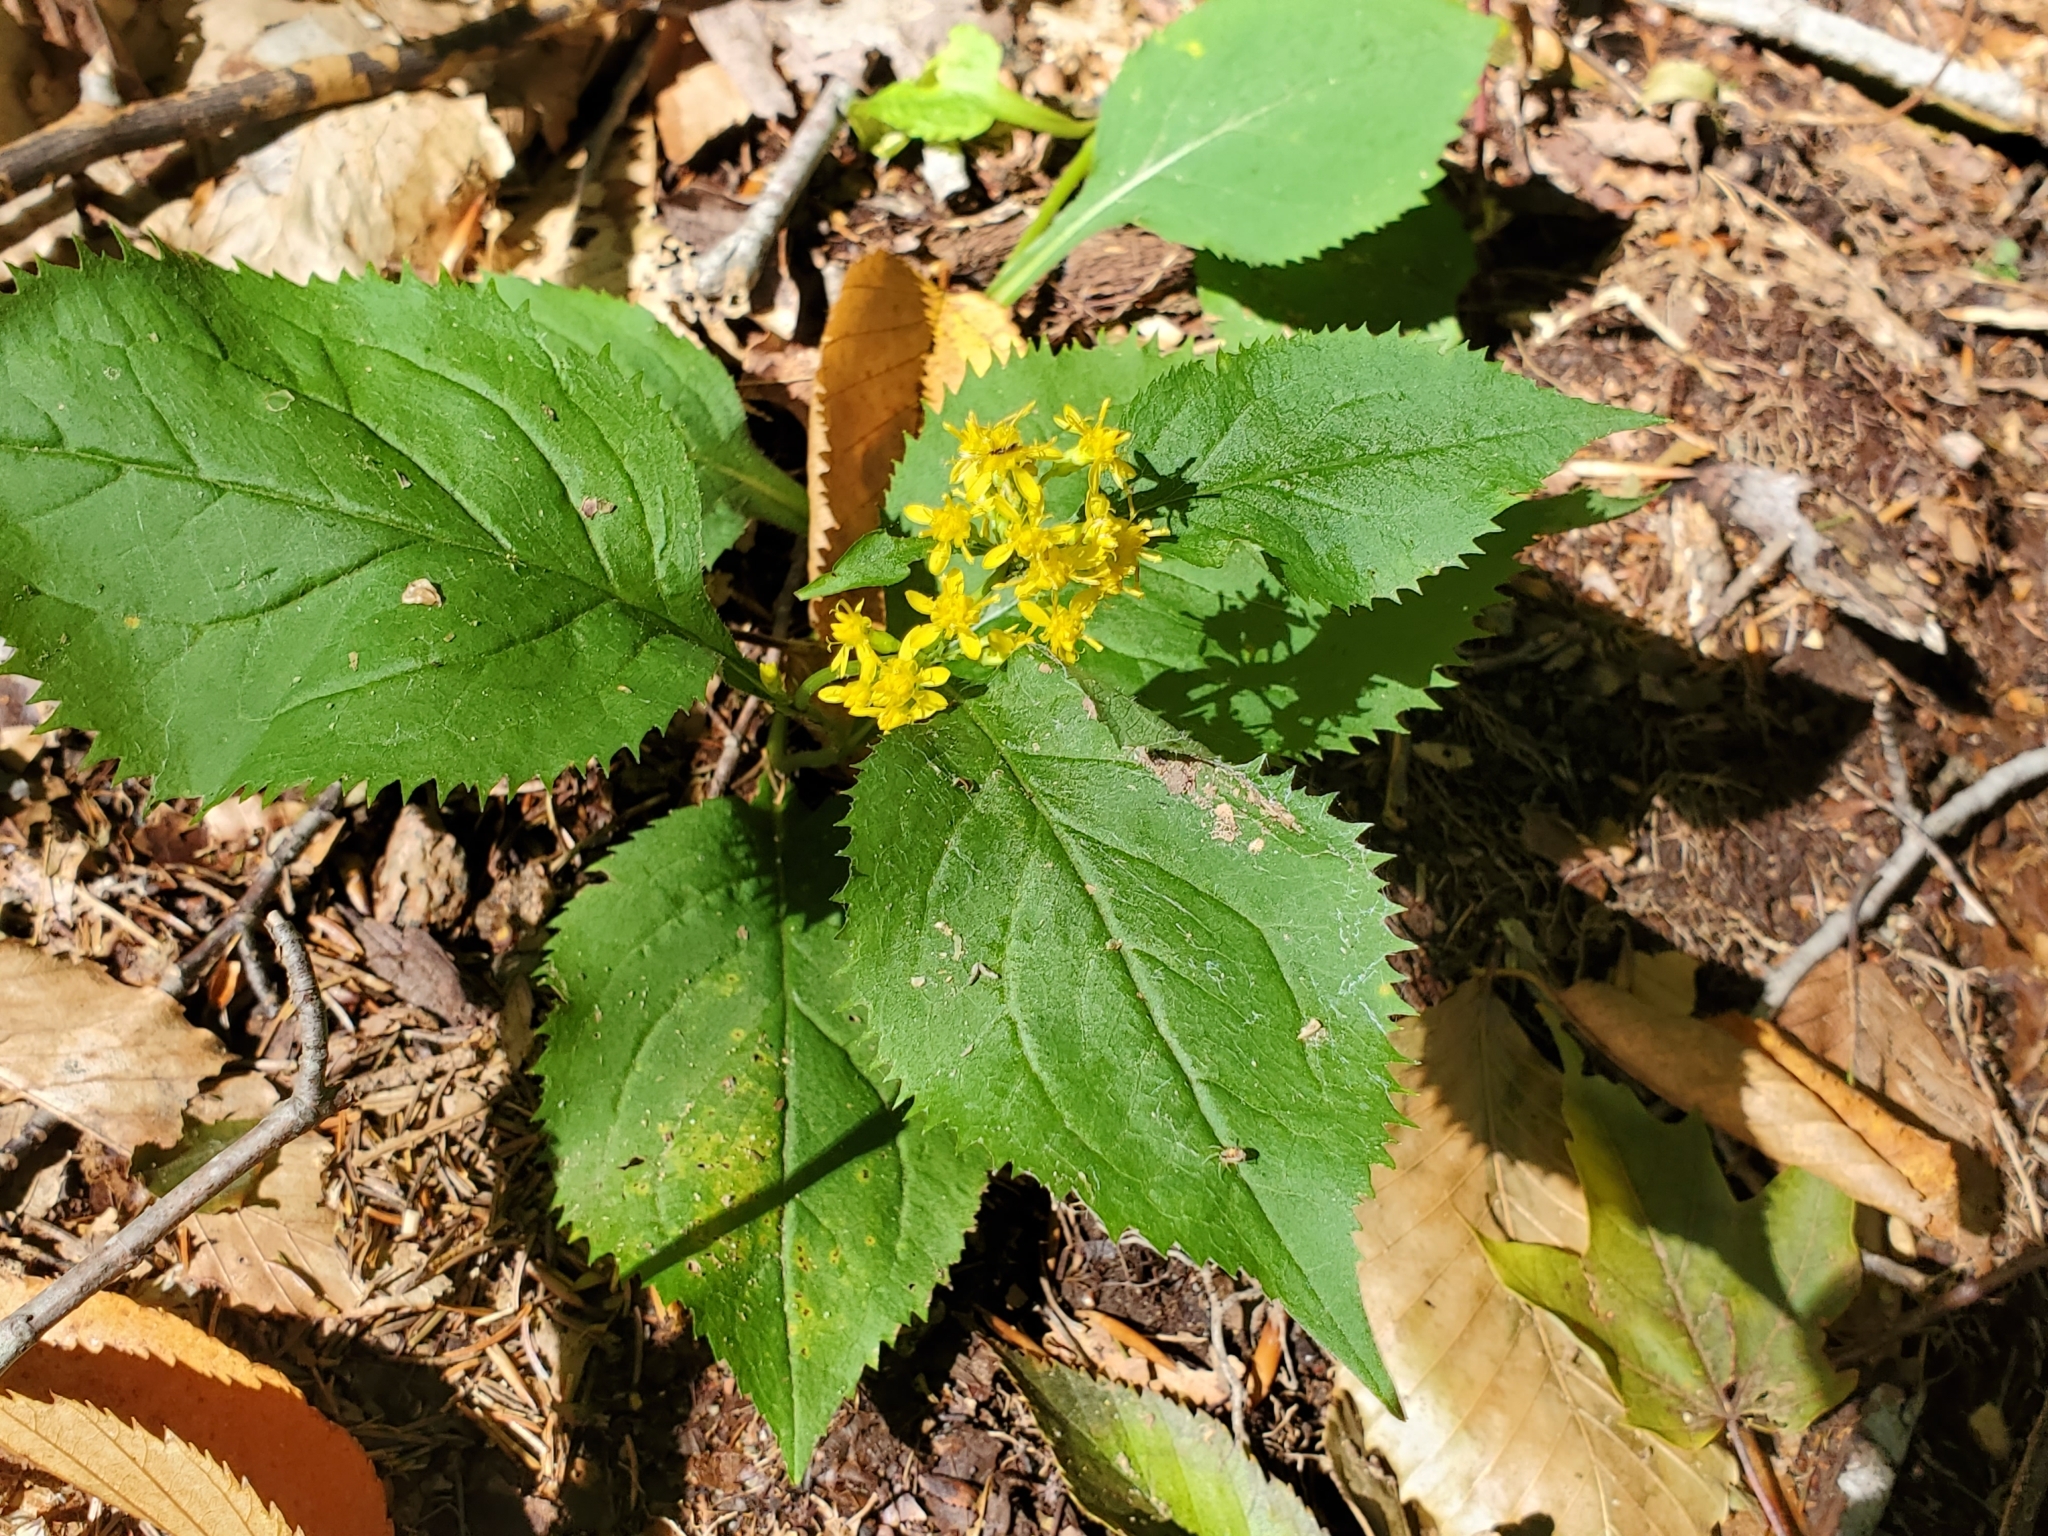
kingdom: Plantae
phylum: Tracheophyta
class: Magnoliopsida
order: Asterales
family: Asteraceae
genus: Solidago
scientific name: Solidago flexicaulis
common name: Zig-zag goldenrod
